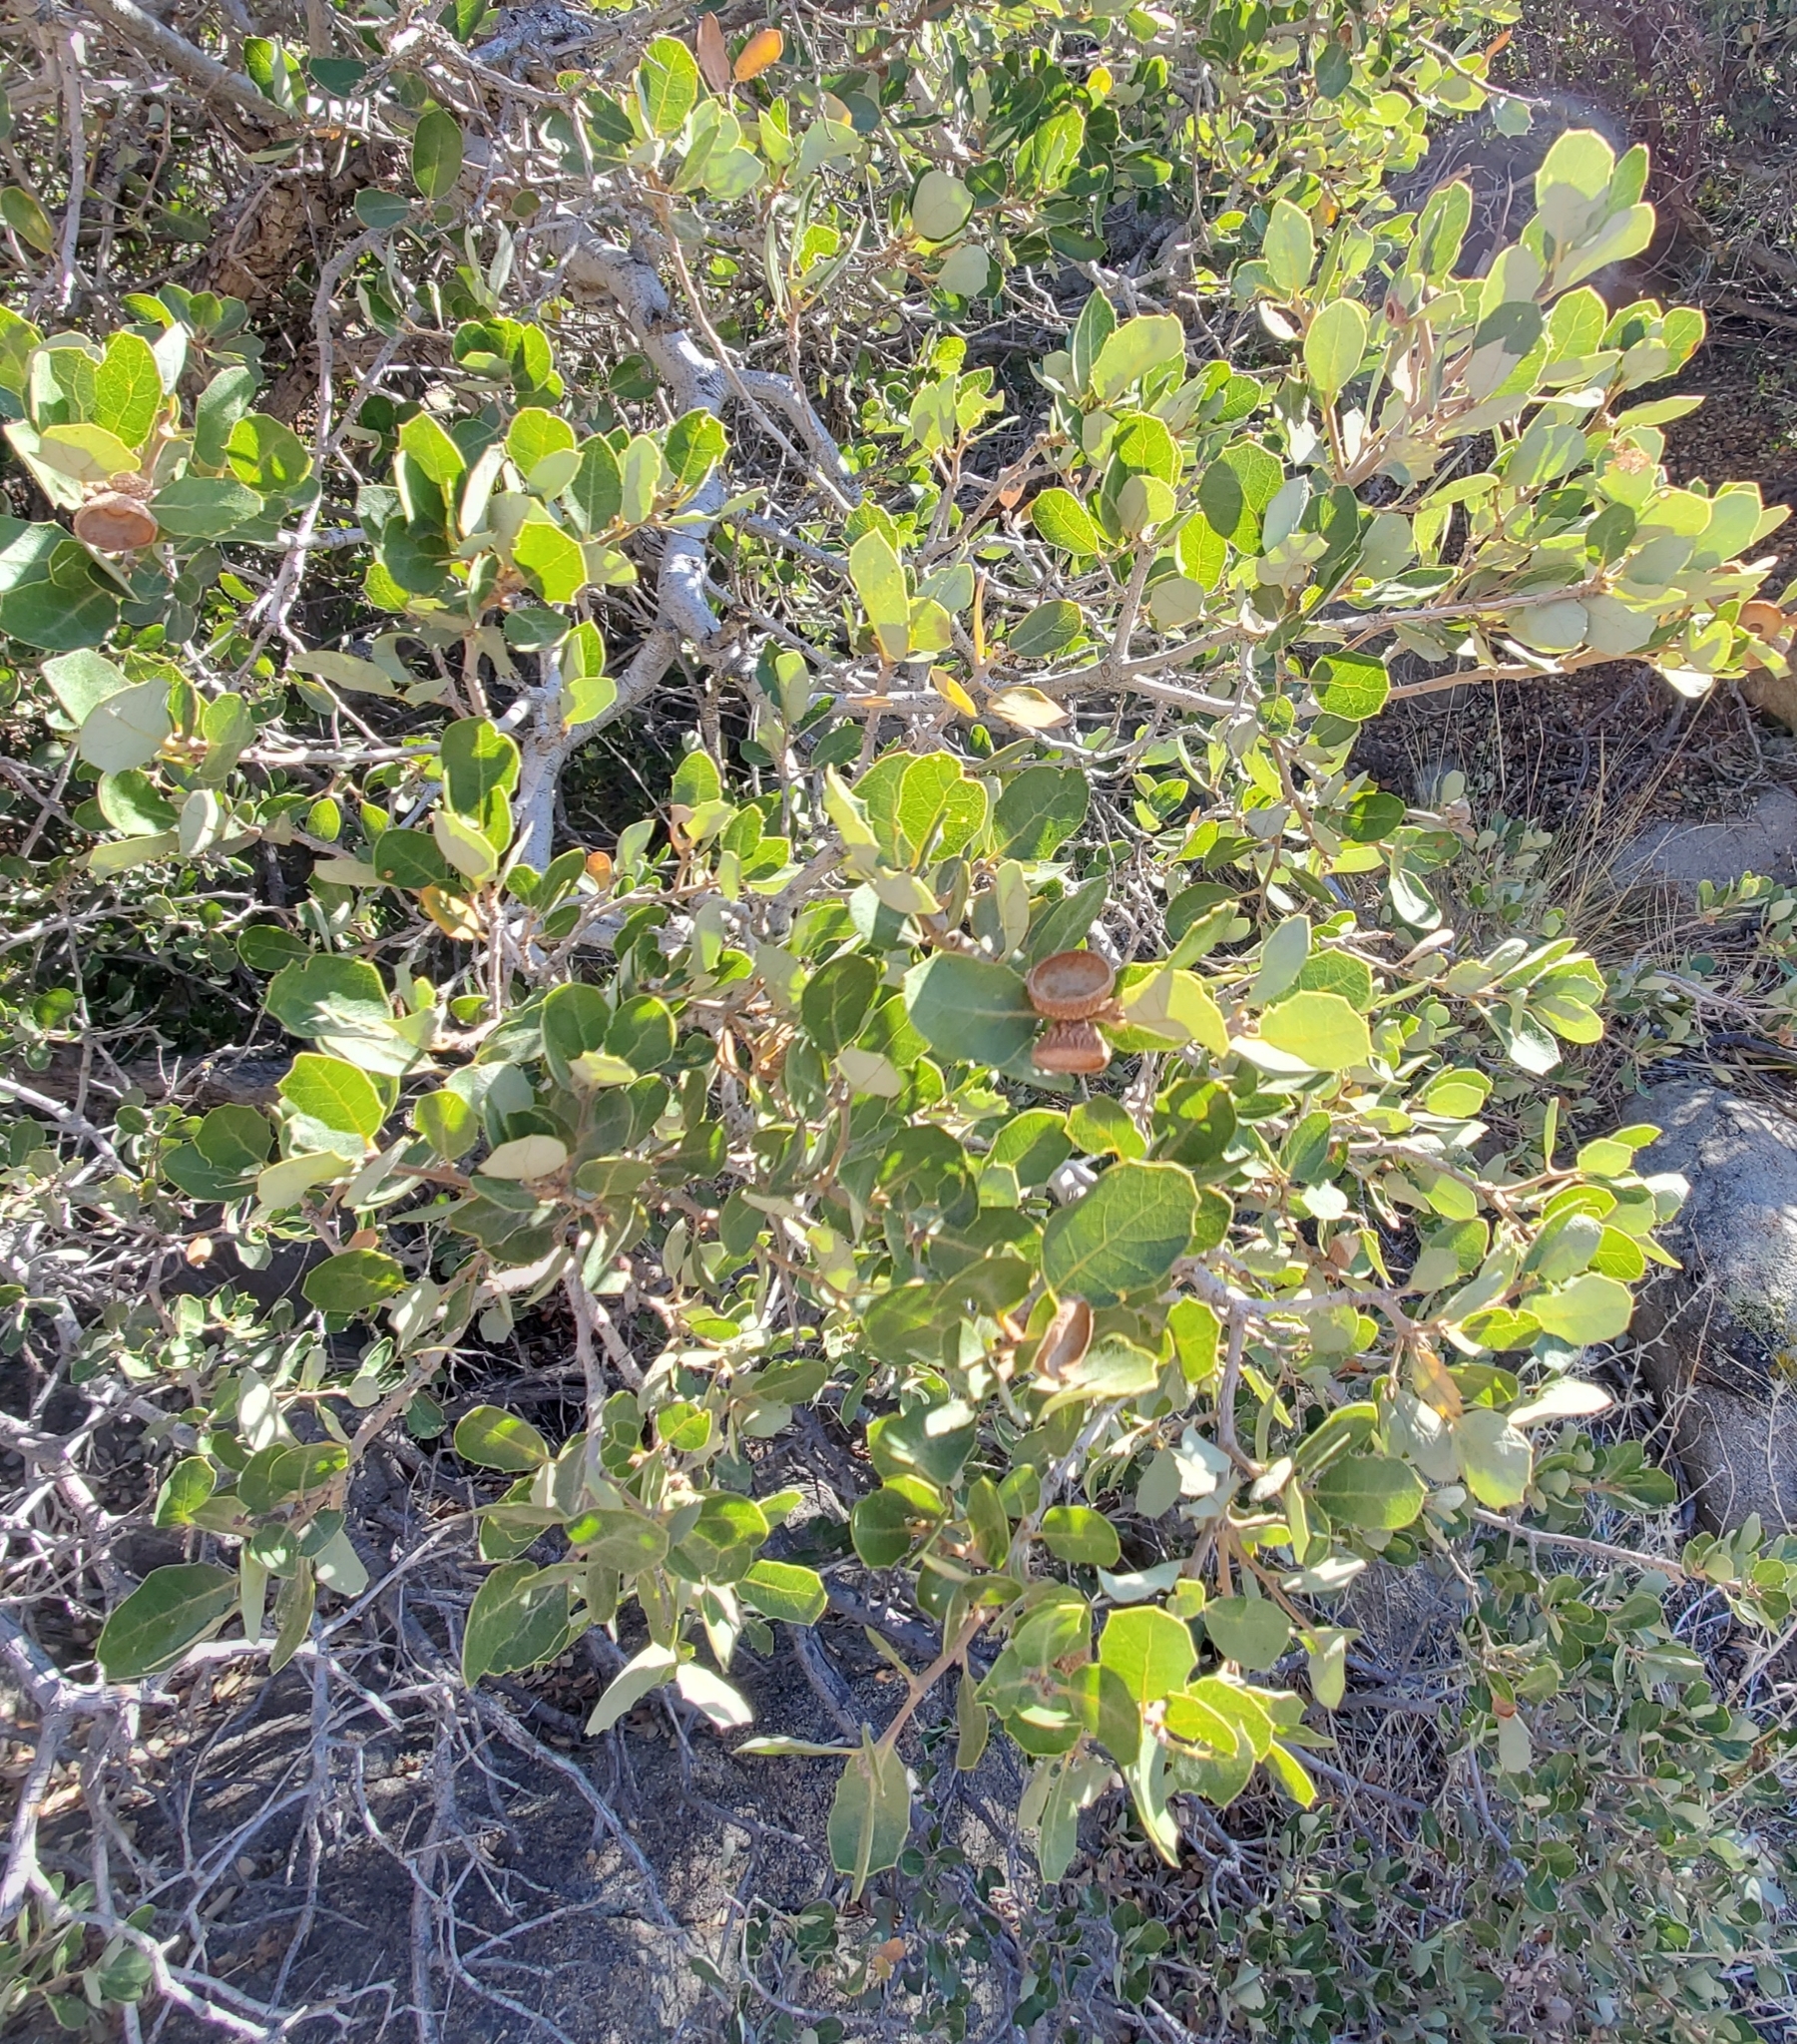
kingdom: Plantae
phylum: Tracheophyta
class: Magnoliopsida
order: Fagales
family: Fagaceae
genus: Quercus
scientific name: Quercus cornelius-mulleri
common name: Muller oak
